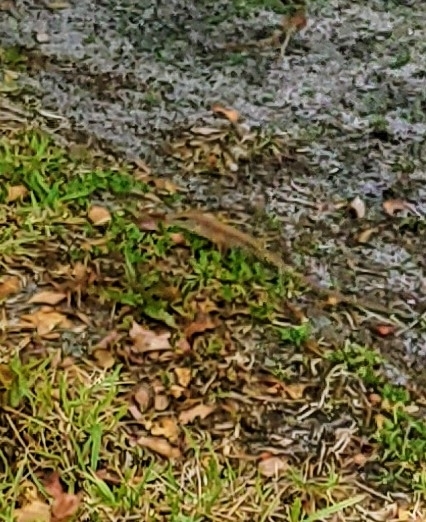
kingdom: Animalia
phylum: Chordata
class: Squamata
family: Teiidae
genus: Ameiva
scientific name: Ameiva ameiva
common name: Giant ameiva
